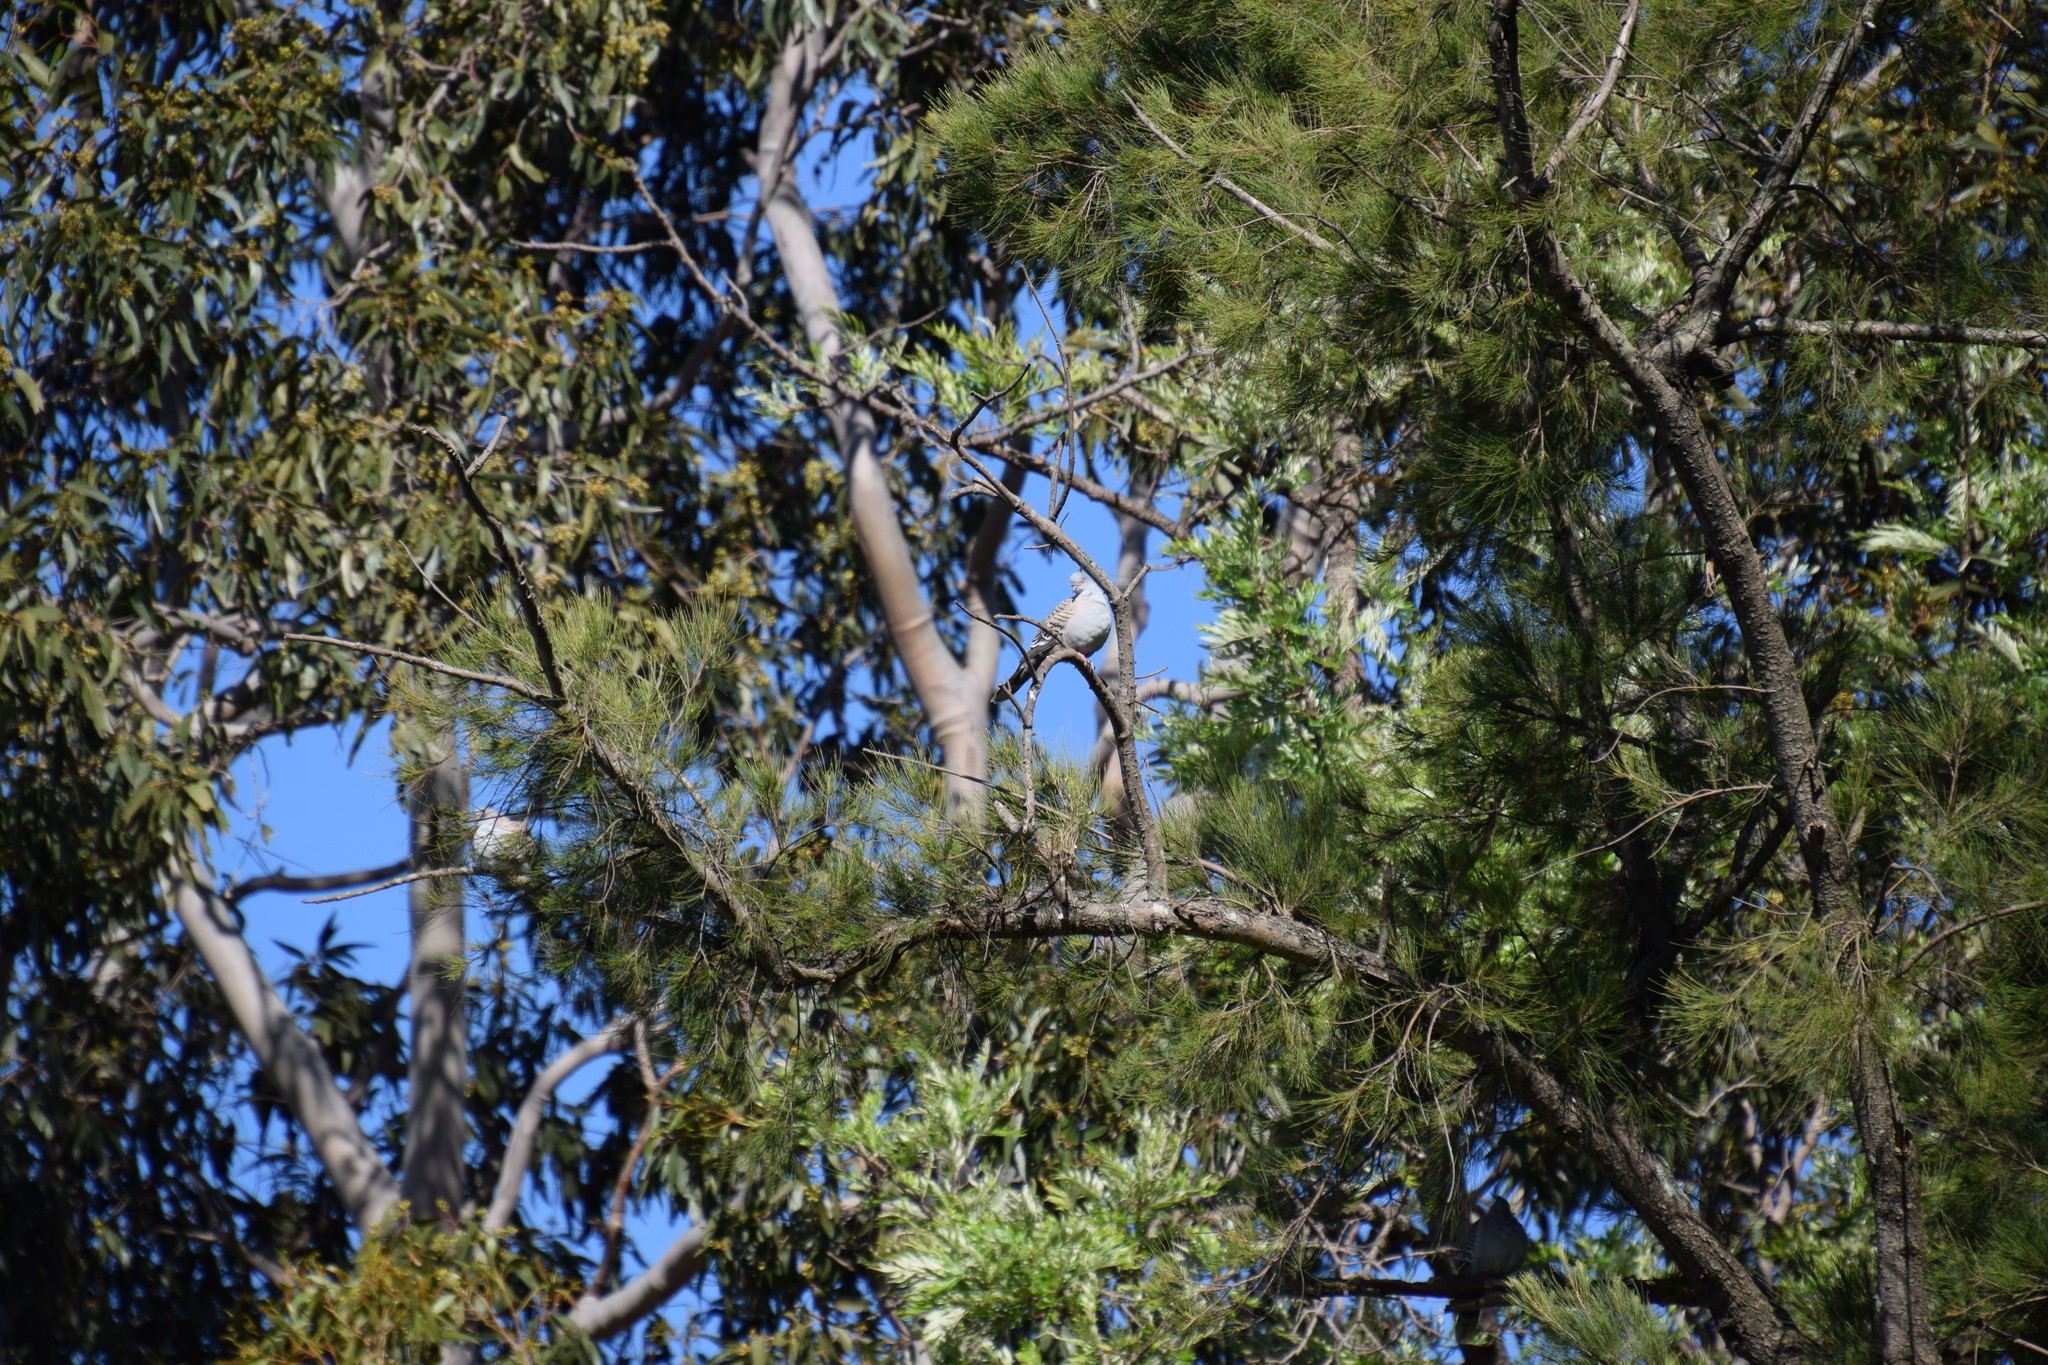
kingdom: Animalia
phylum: Chordata
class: Aves
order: Columbiformes
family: Columbidae
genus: Ocyphaps
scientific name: Ocyphaps lophotes
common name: Crested pigeon
